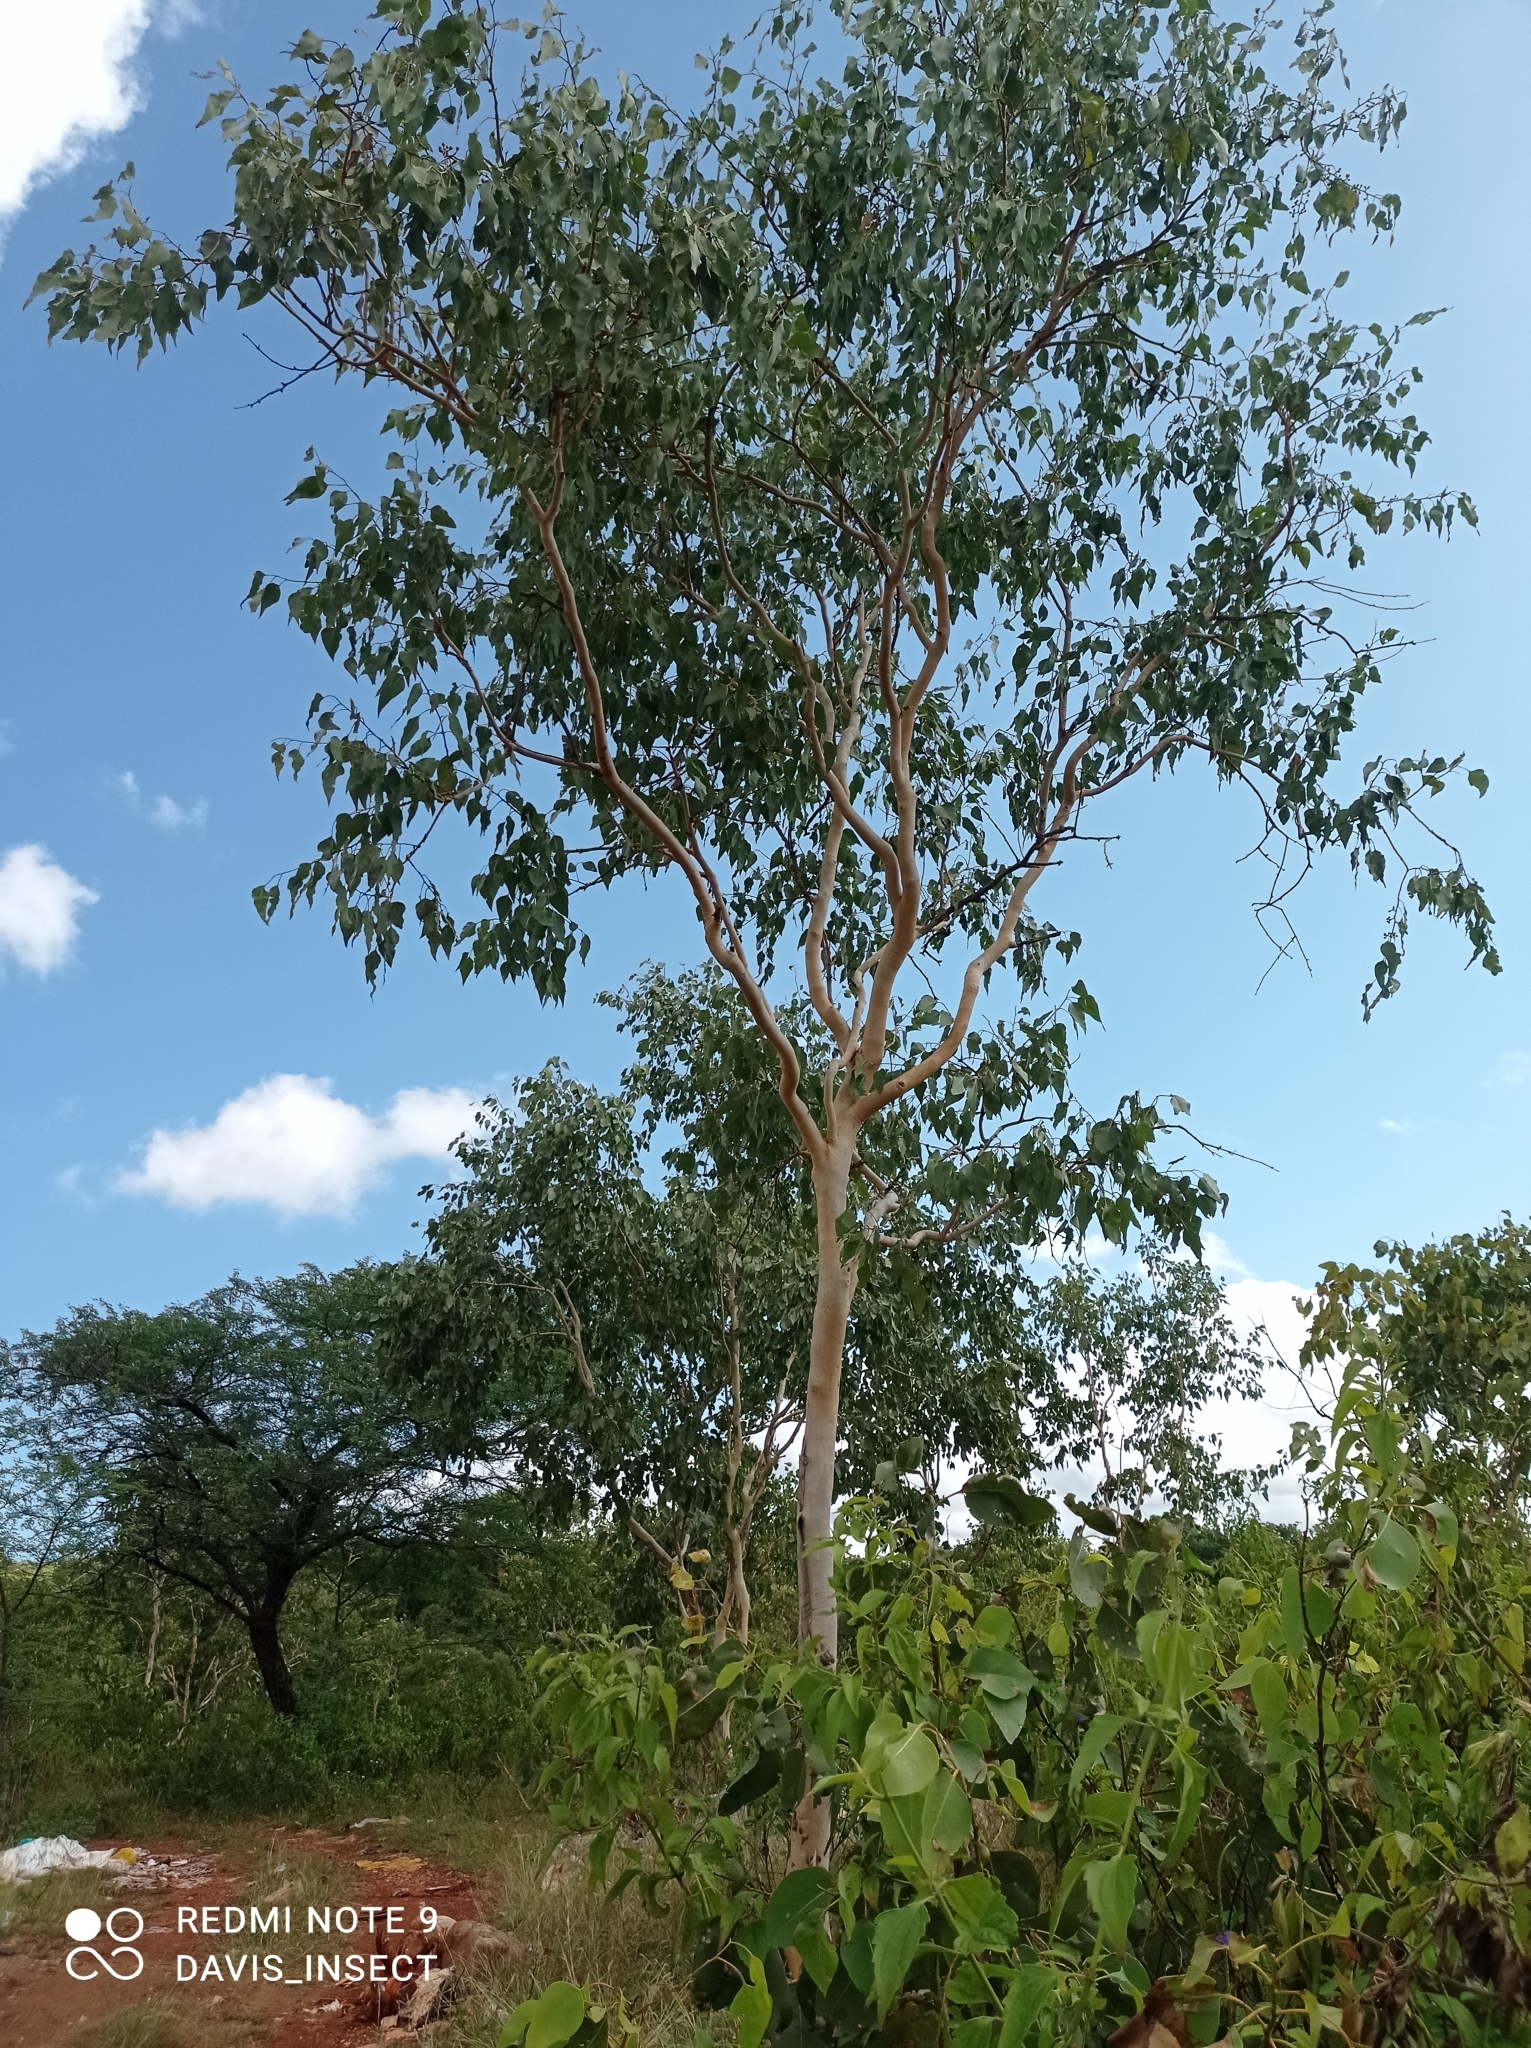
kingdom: Plantae
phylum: Tracheophyta
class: Magnoliopsida
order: Myrtales
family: Myrtaceae
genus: Eucalyptus
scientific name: Eucalyptus alba
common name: Khaki-gum
